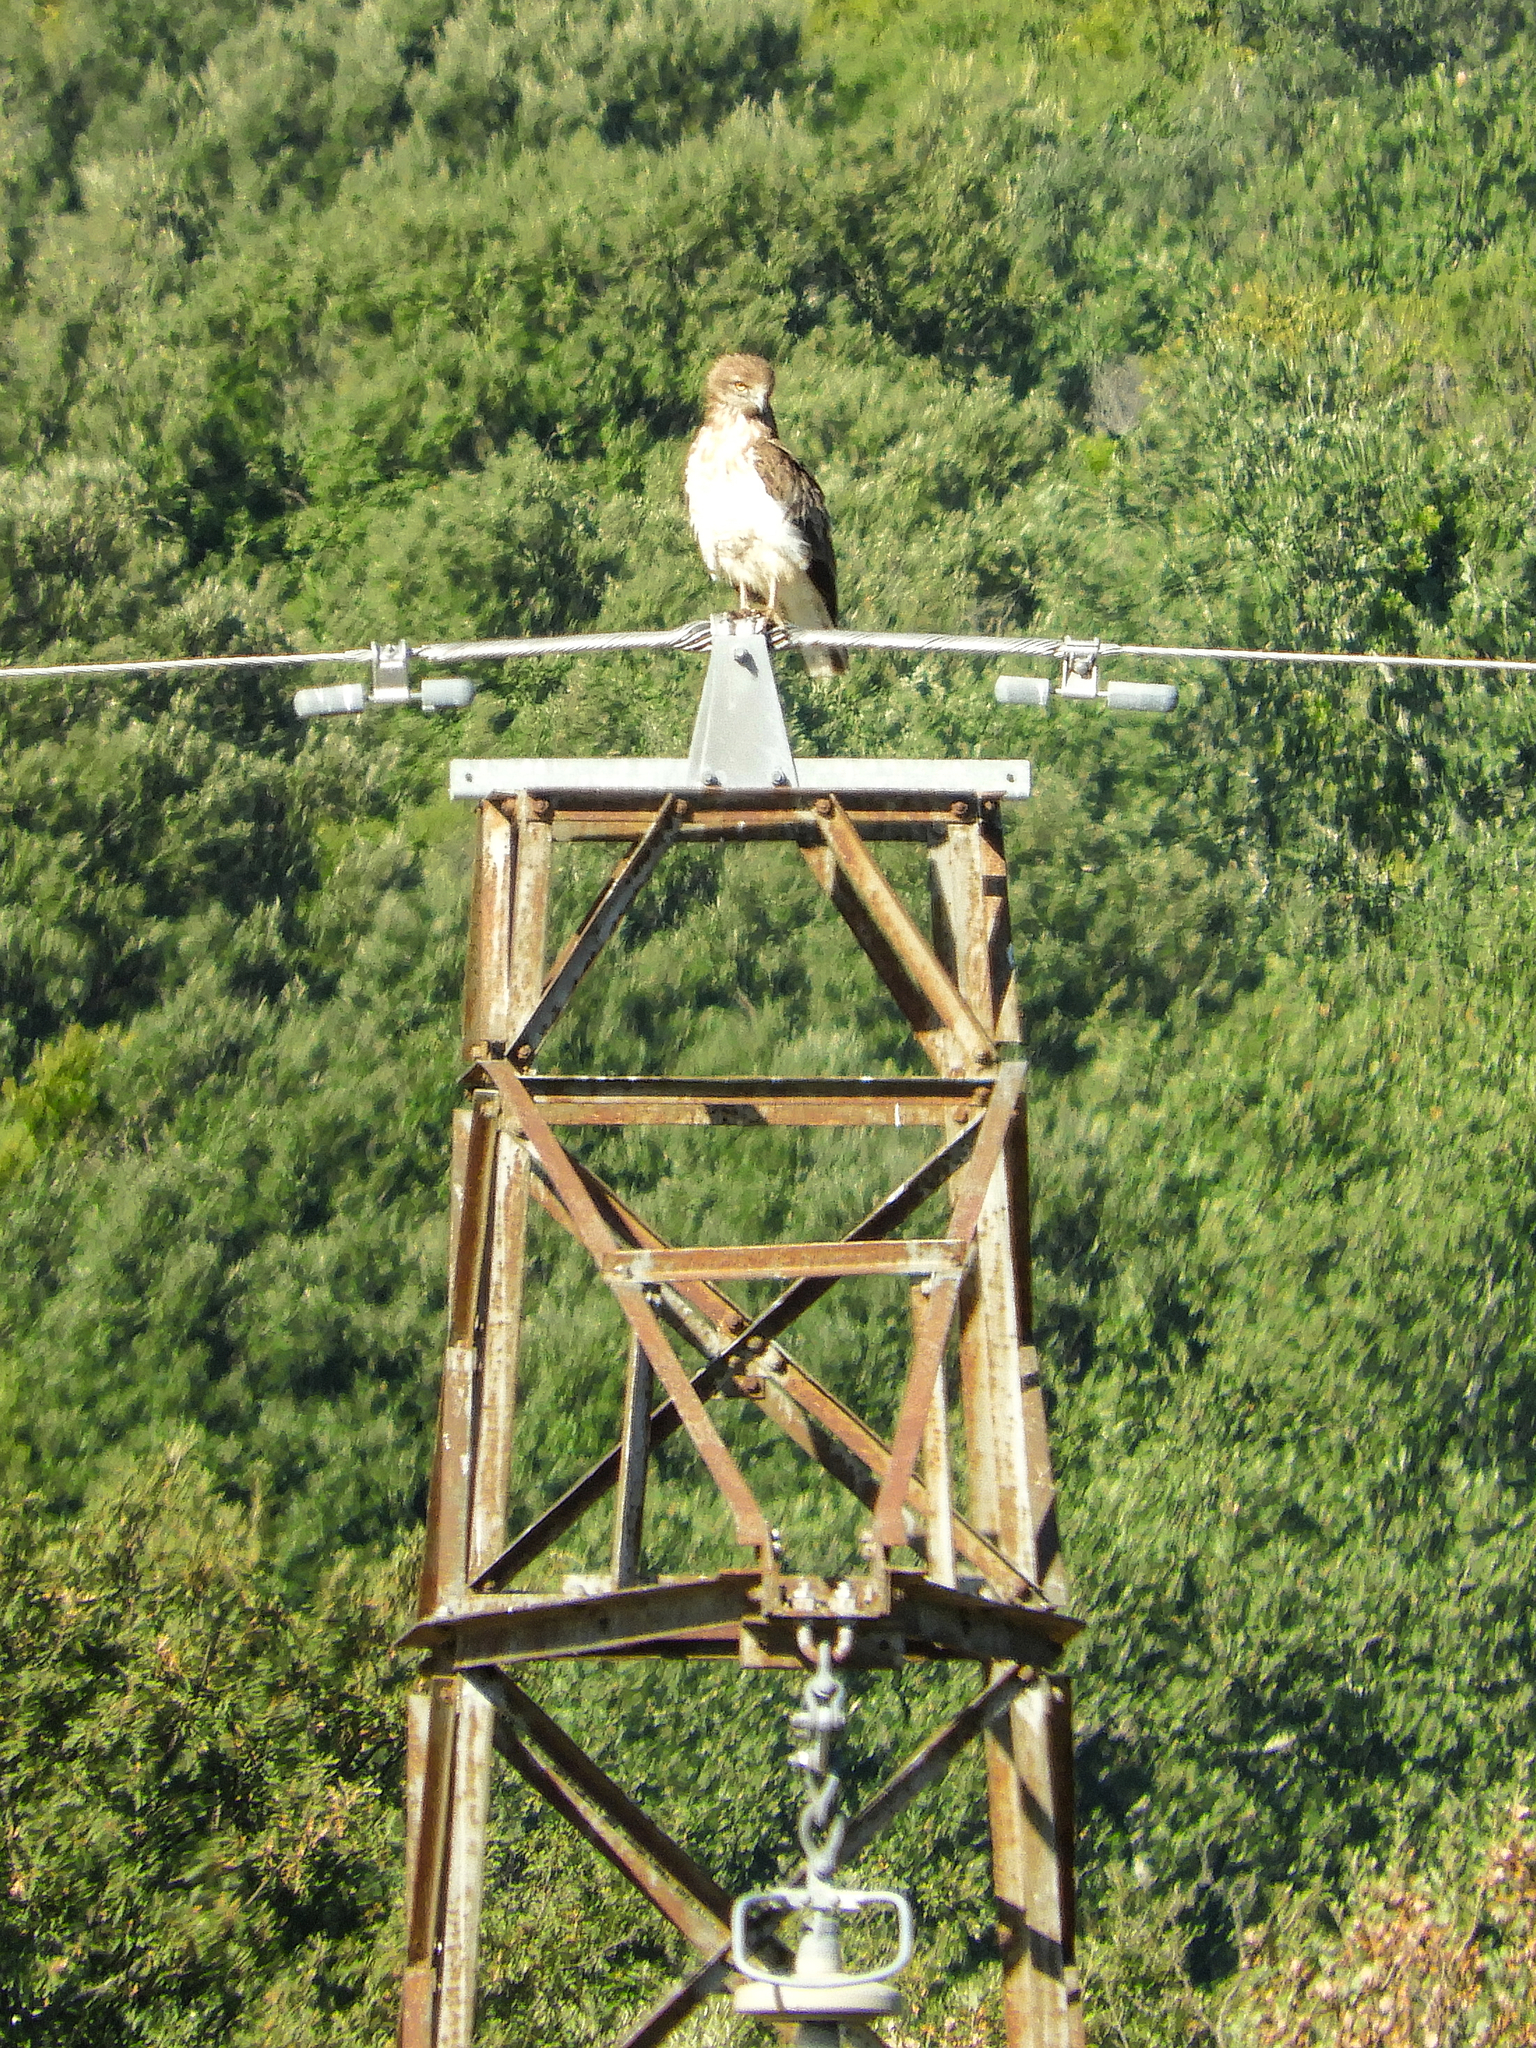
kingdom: Animalia
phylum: Chordata
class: Aves
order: Accipitriformes
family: Accipitridae
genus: Circaetus
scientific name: Circaetus gallicus
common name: Short-toed snake eagle
